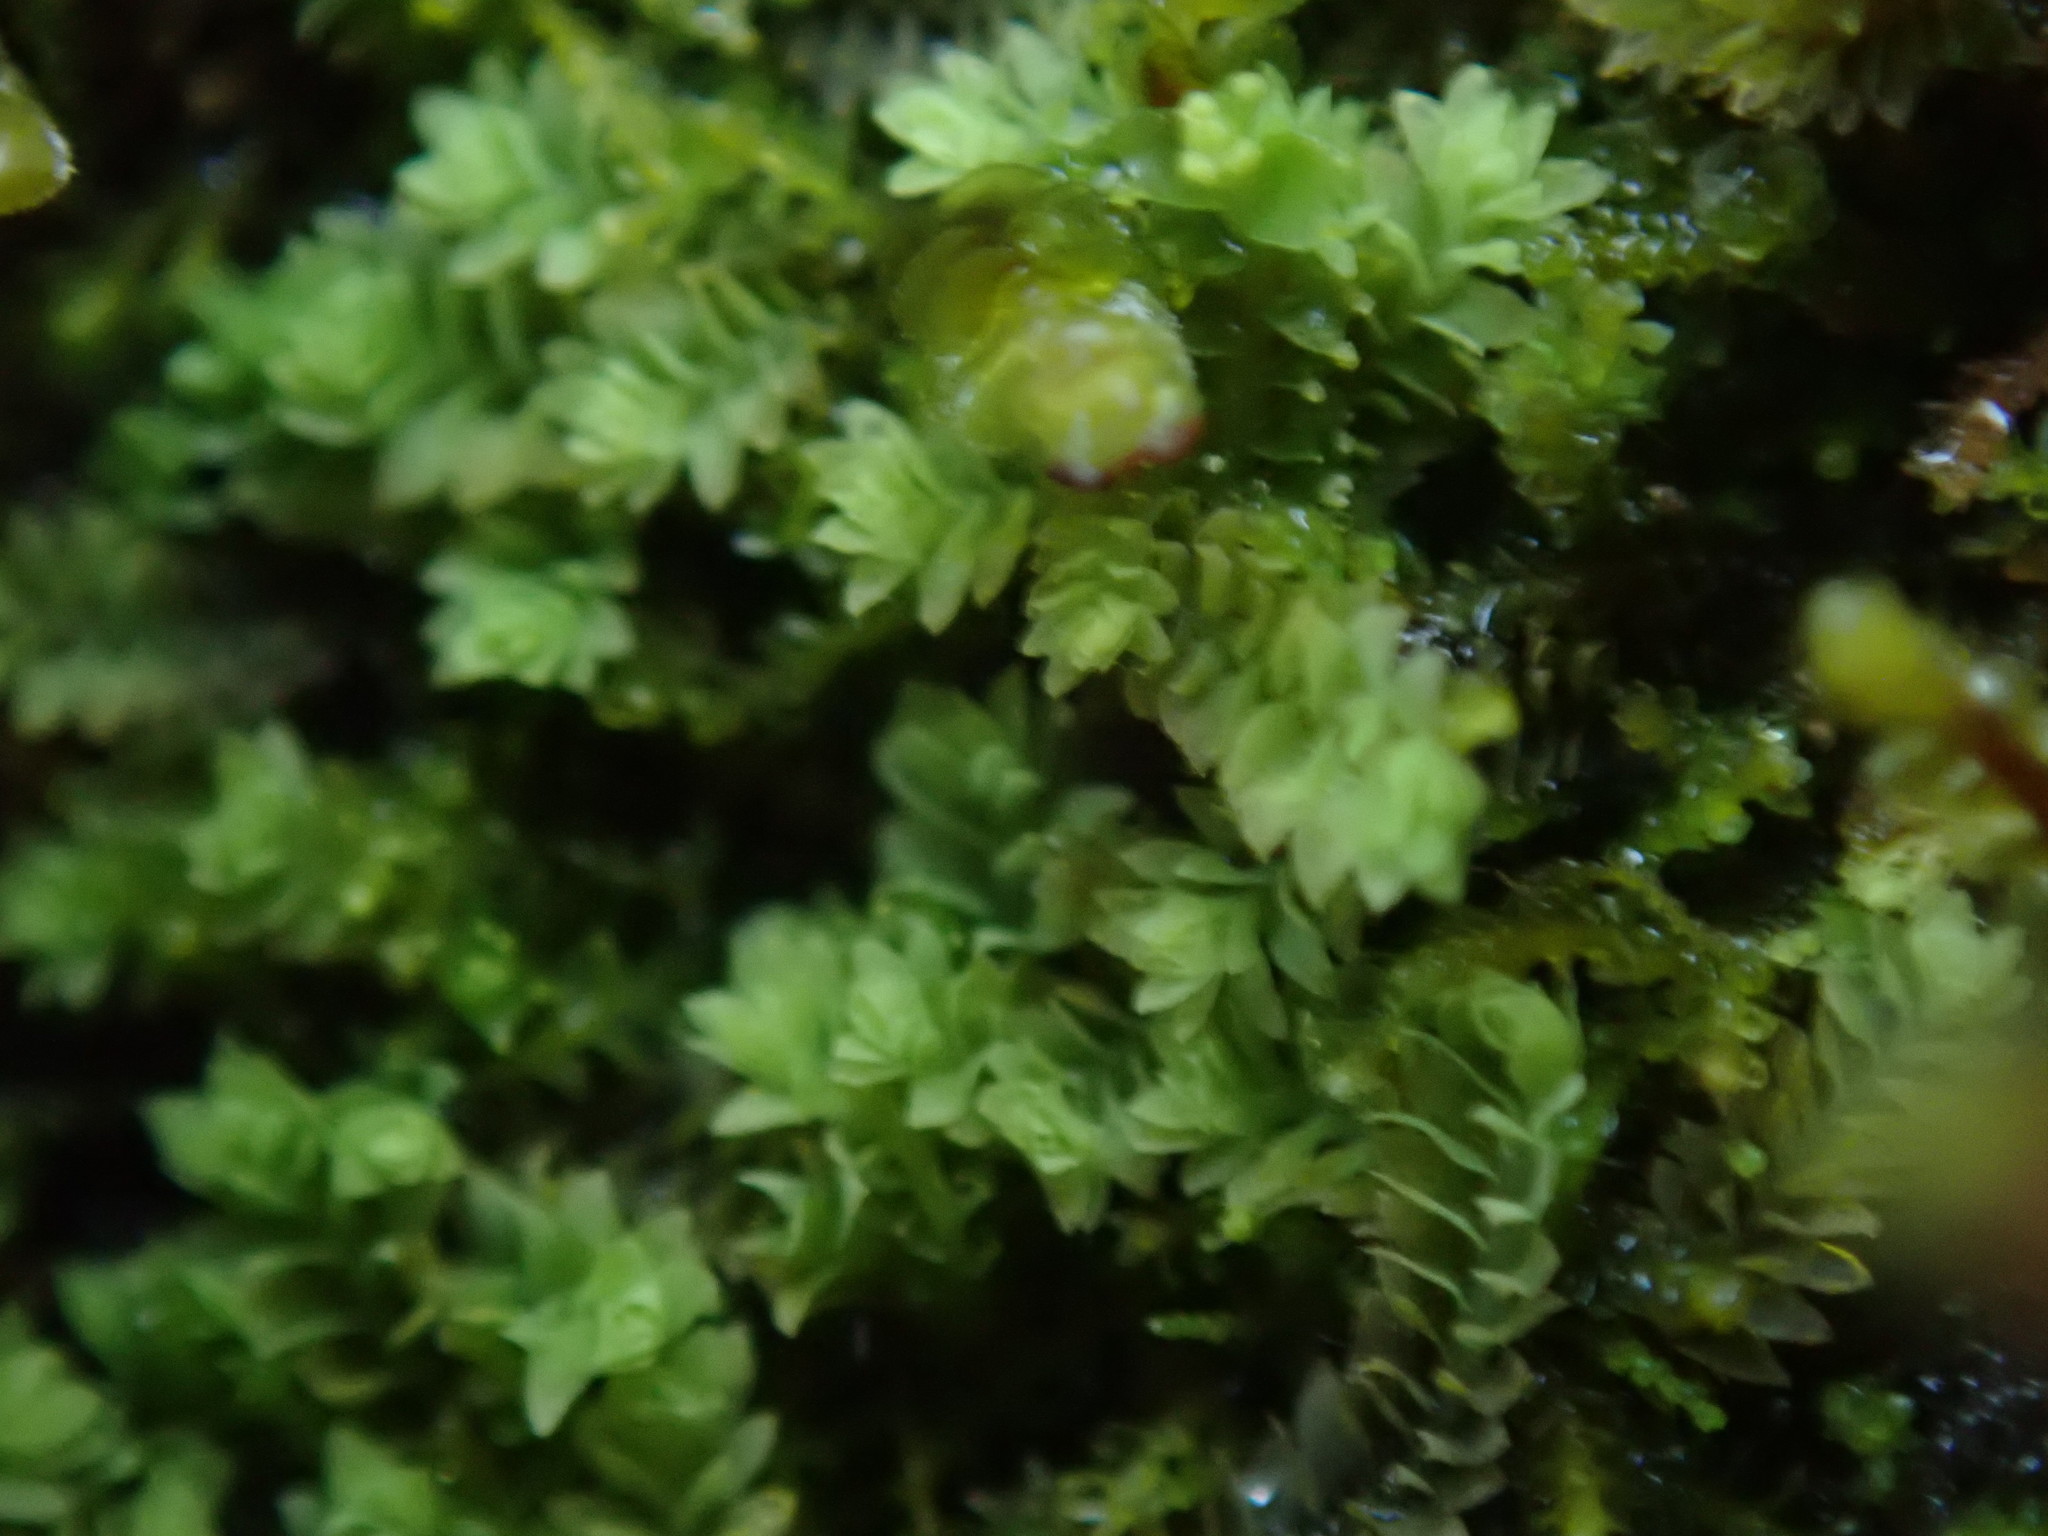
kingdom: Plantae
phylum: Marchantiophyta
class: Jungermanniopsida
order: Jungermanniales
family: Scapaniaceae
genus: Douinia
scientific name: Douinia ovata
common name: Waxy earwort
